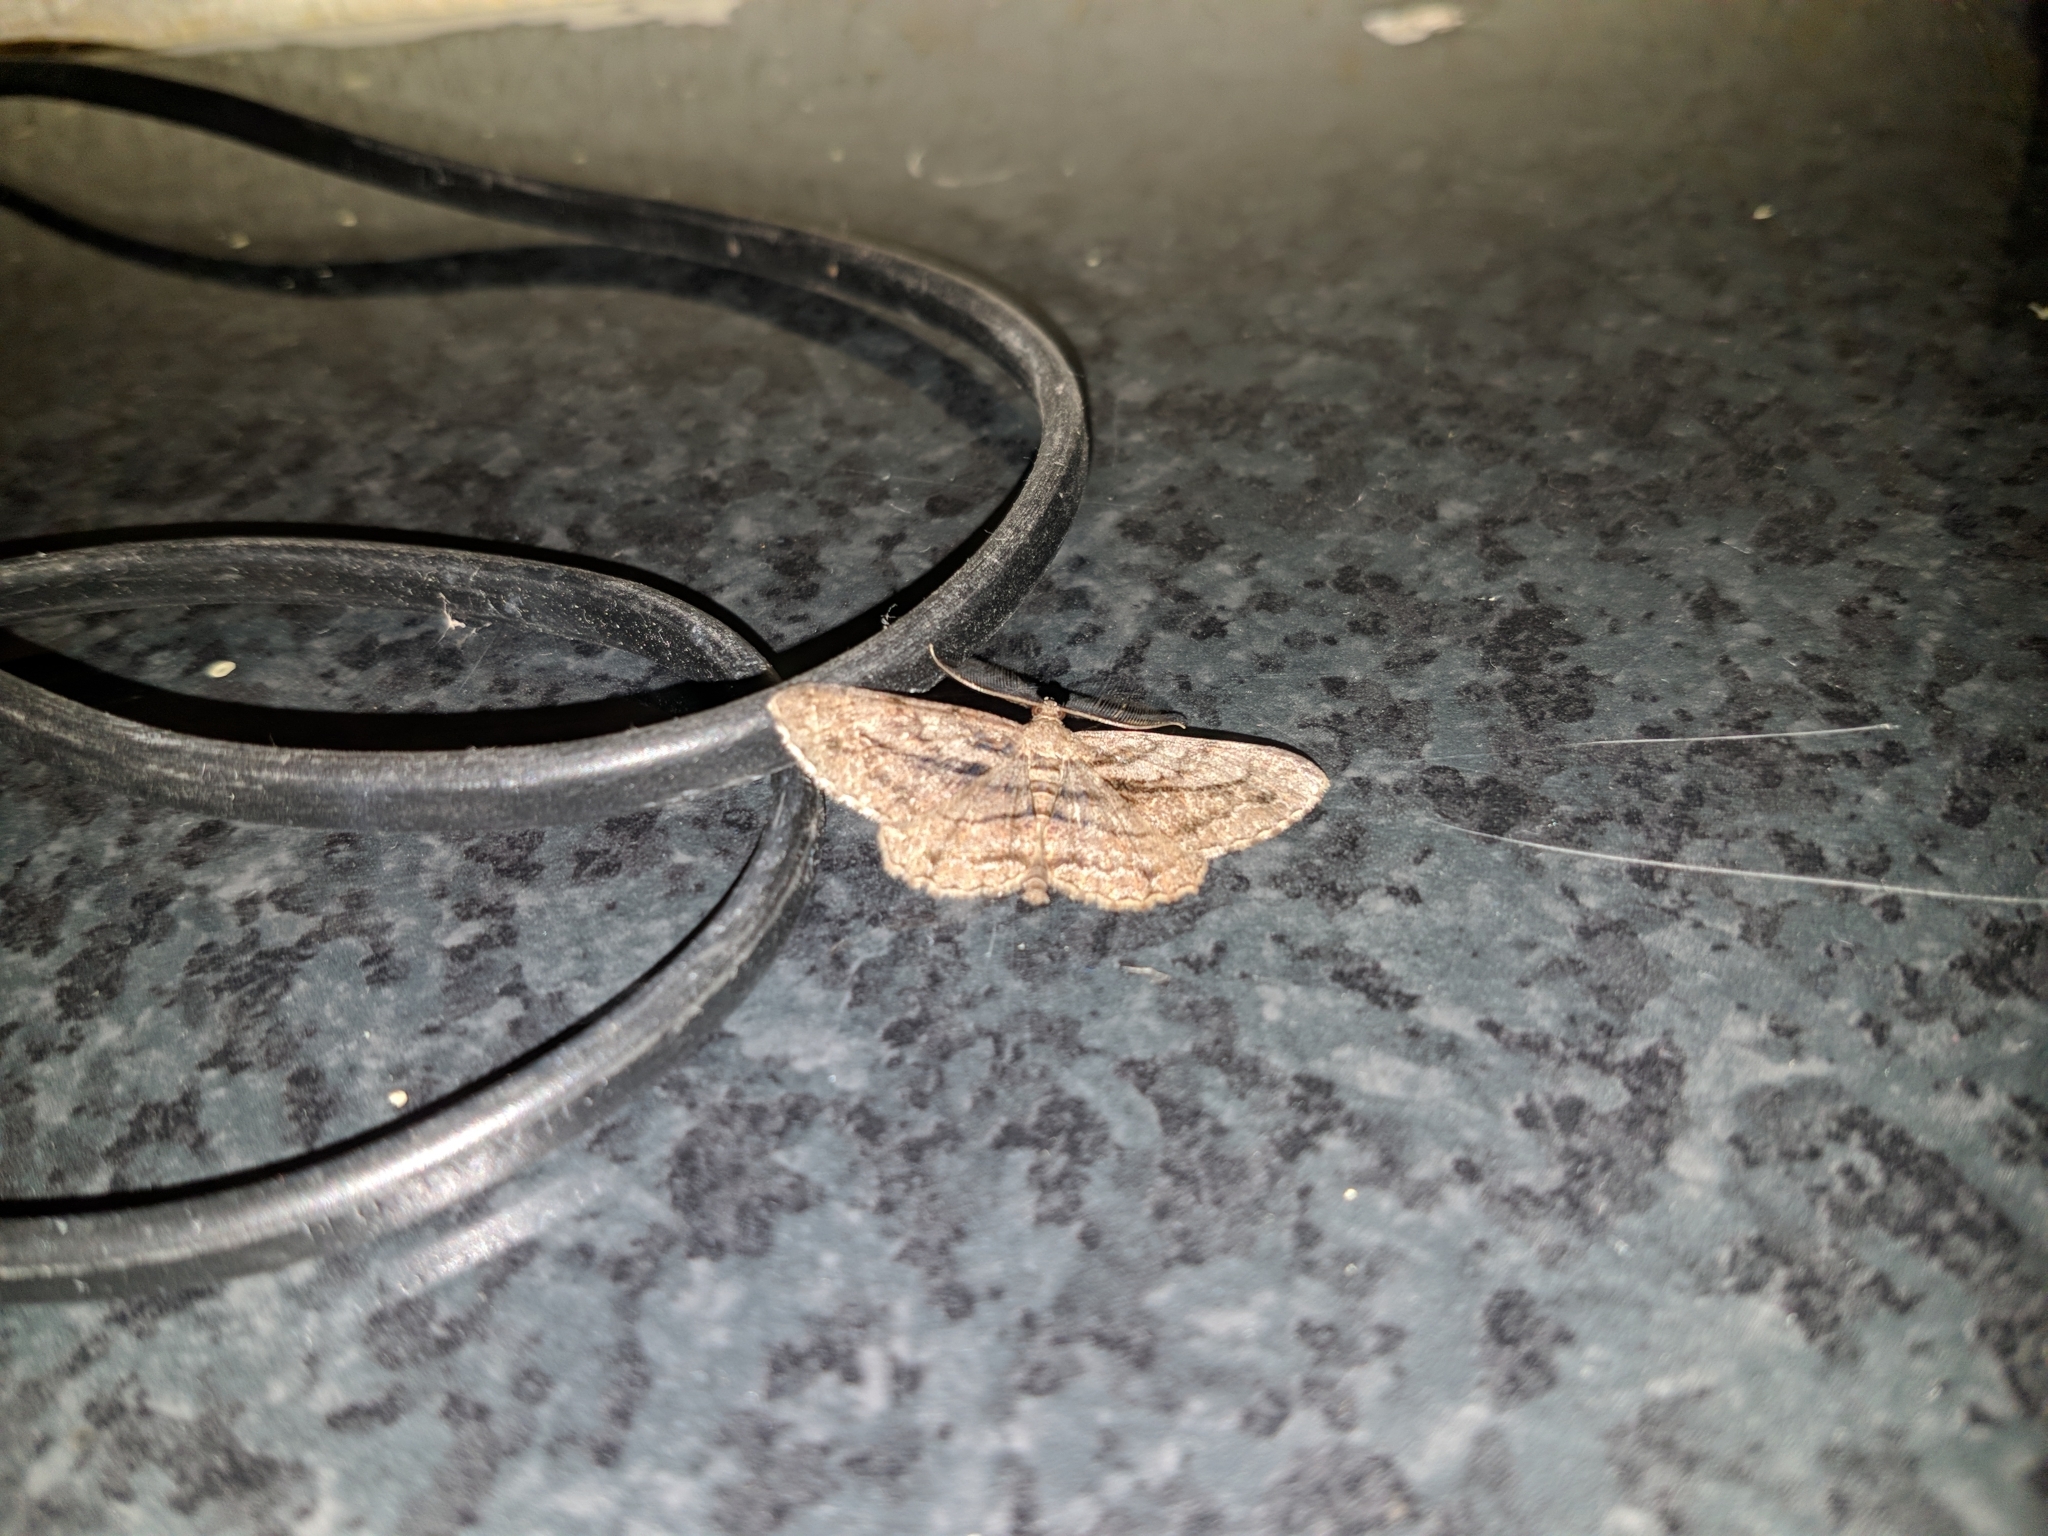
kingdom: Animalia
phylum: Arthropoda
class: Insecta
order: Lepidoptera
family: Geometridae
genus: Peribatodes
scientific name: Peribatodes correptaria
